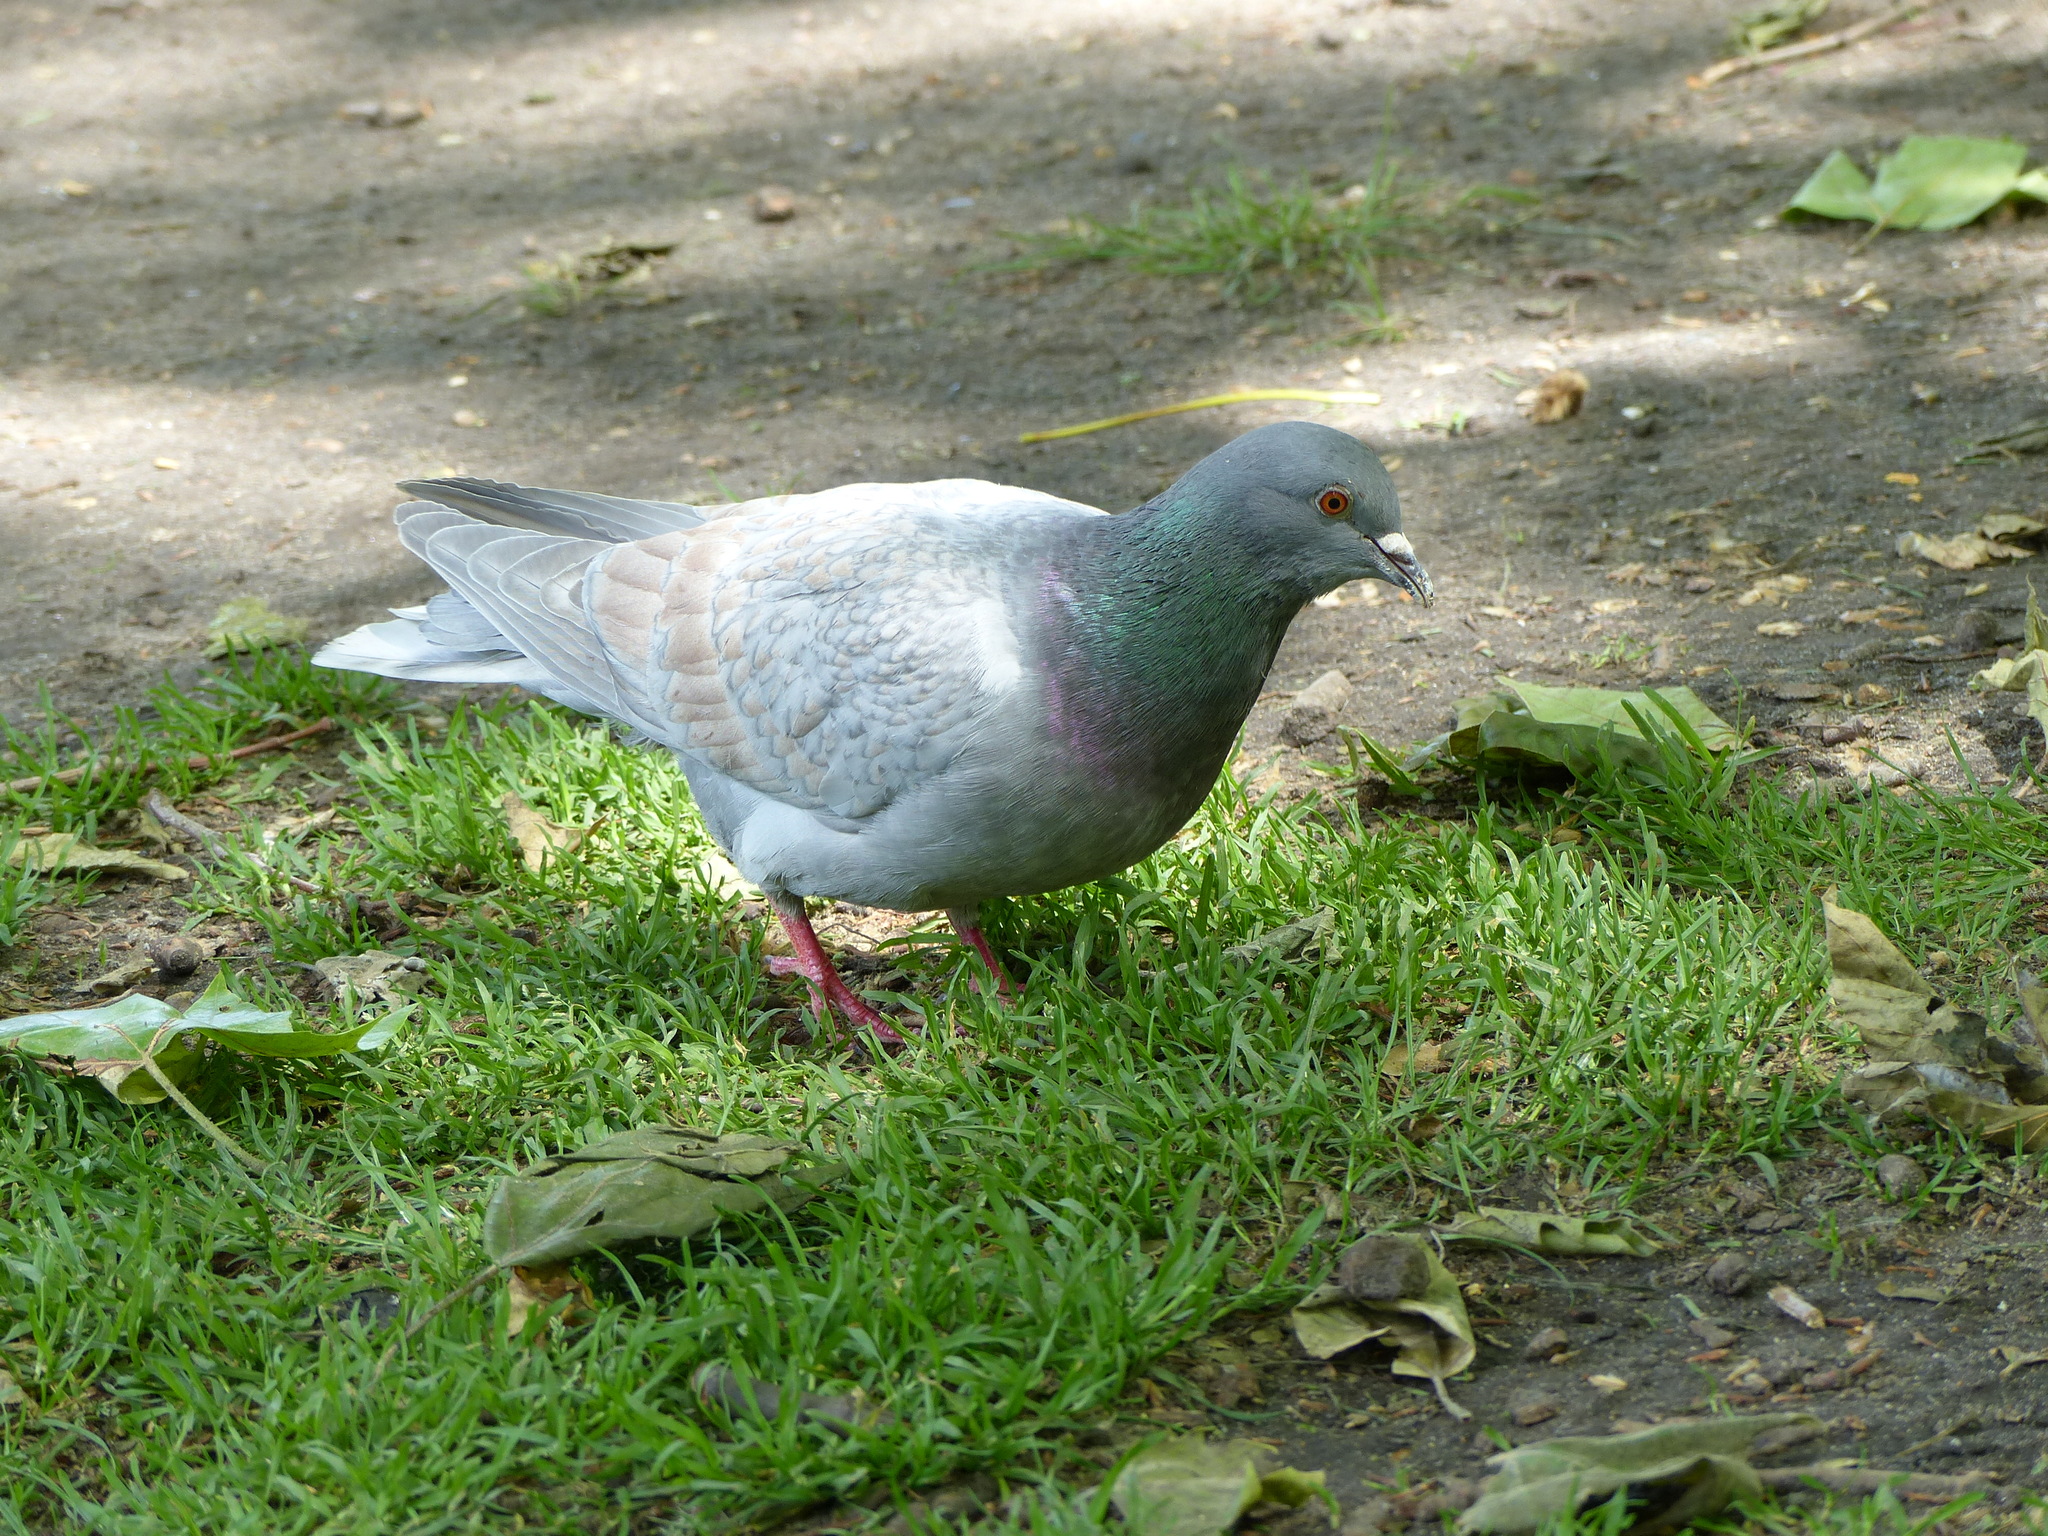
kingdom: Animalia
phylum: Chordata
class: Aves
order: Columbiformes
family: Columbidae
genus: Columba
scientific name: Columba livia
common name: Rock pigeon
